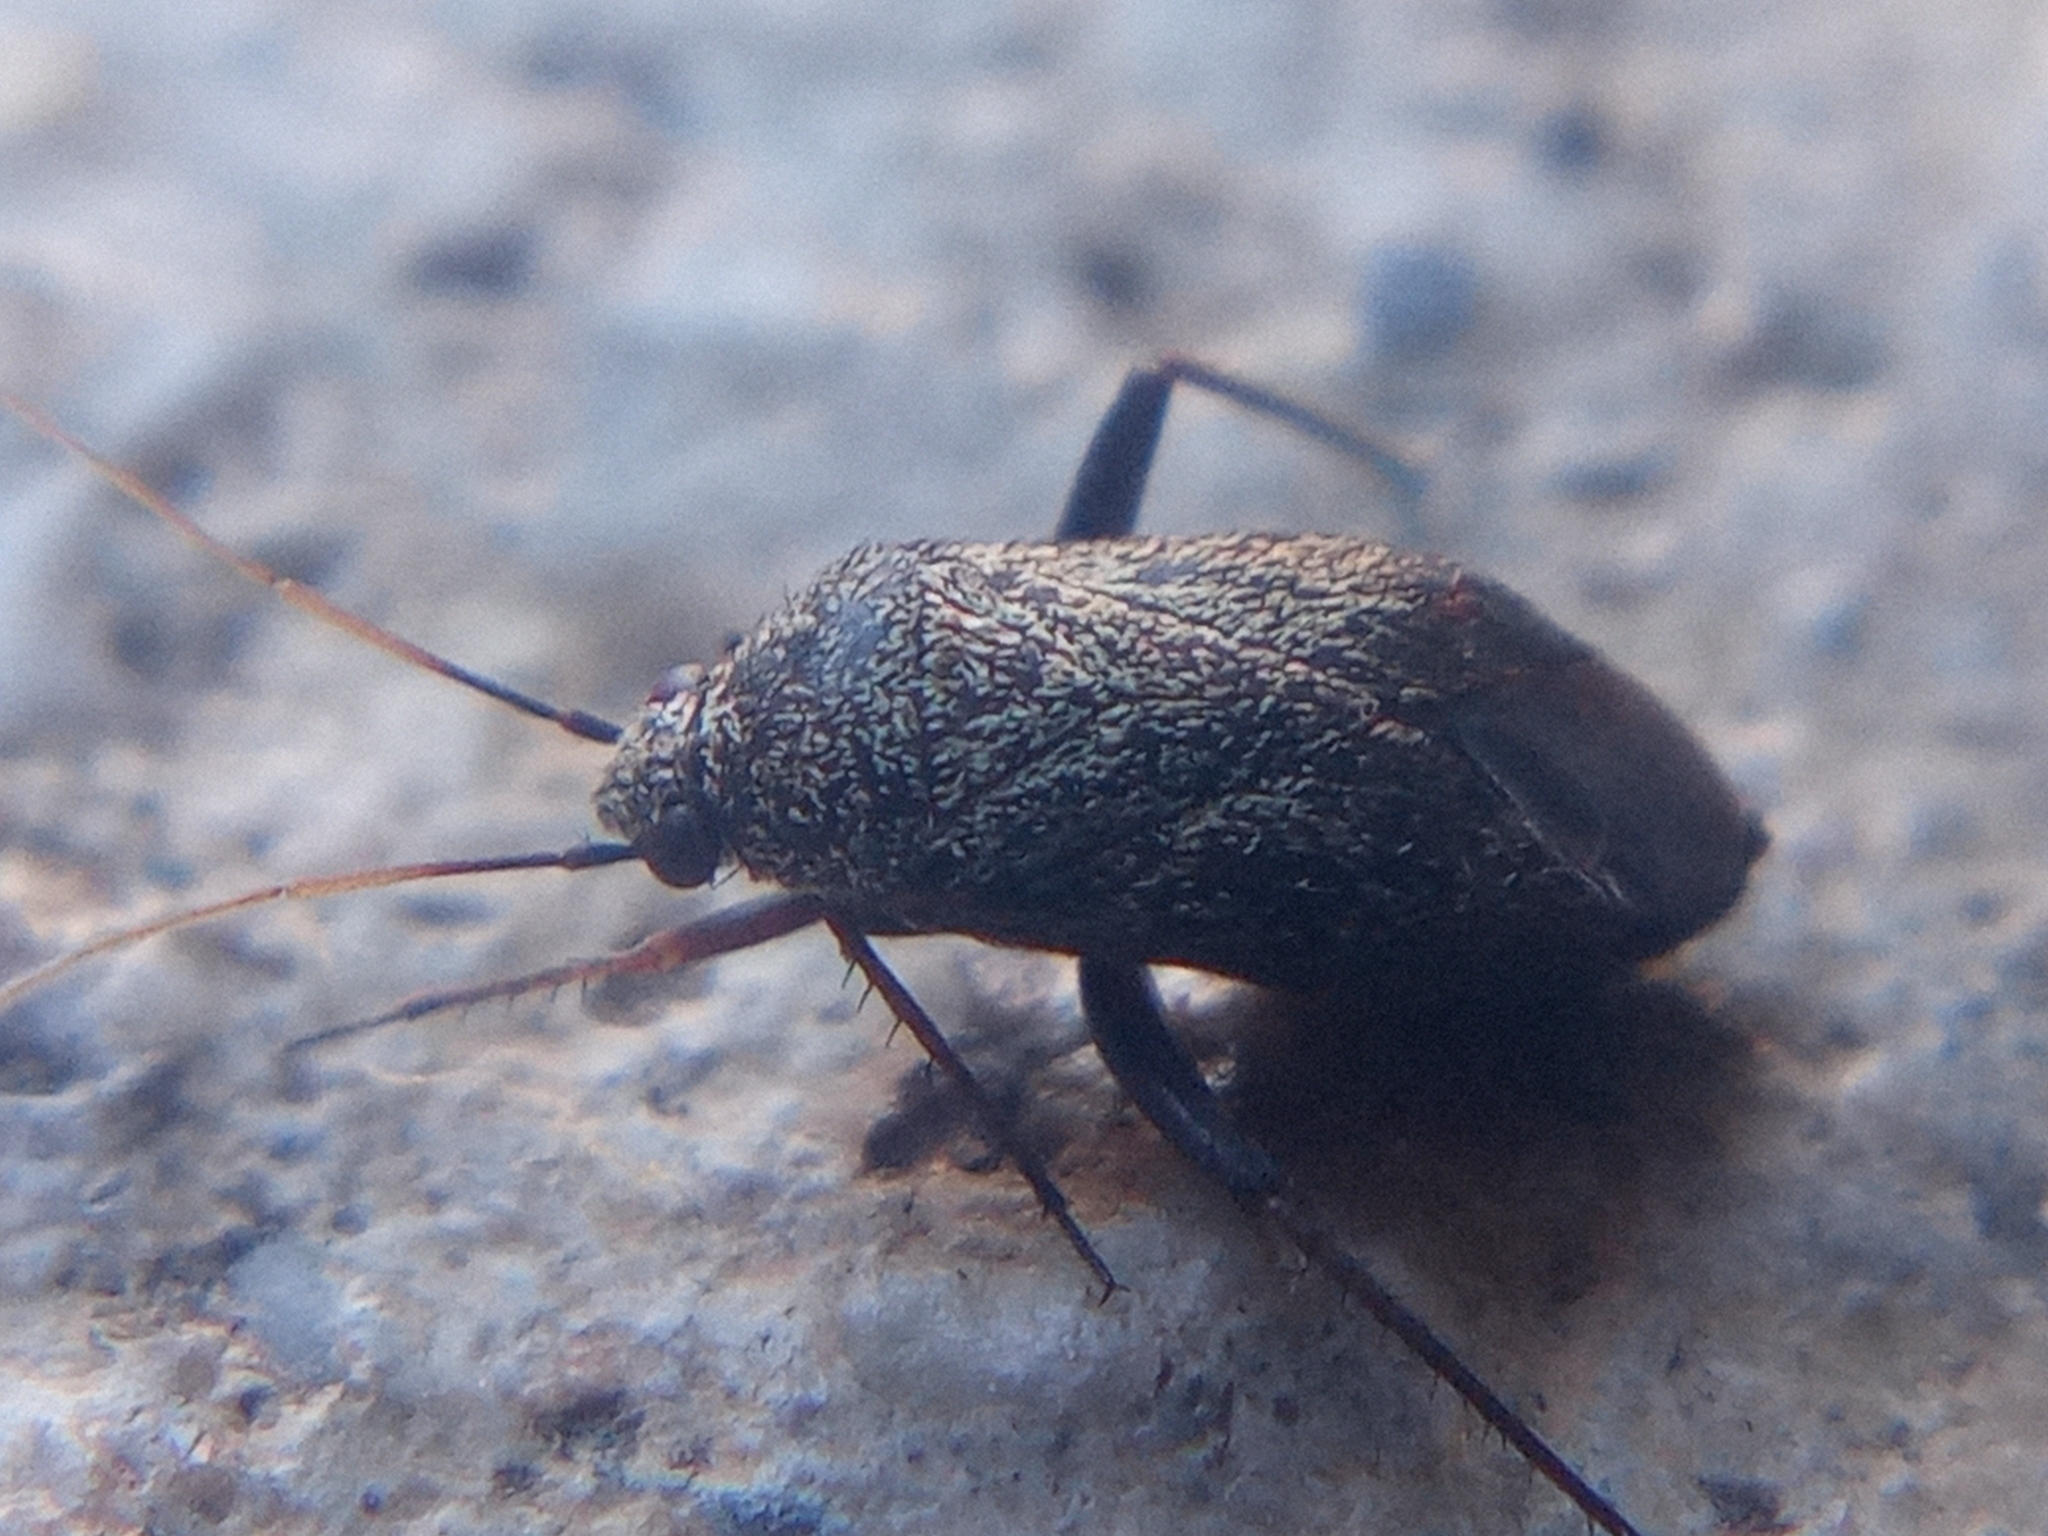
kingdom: Animalia
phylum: Arthropoda
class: Insecta
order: Hemiptera
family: Miridae
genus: Lepidargyrus
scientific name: Lepidargyrus ancorifer
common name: Plant bug
